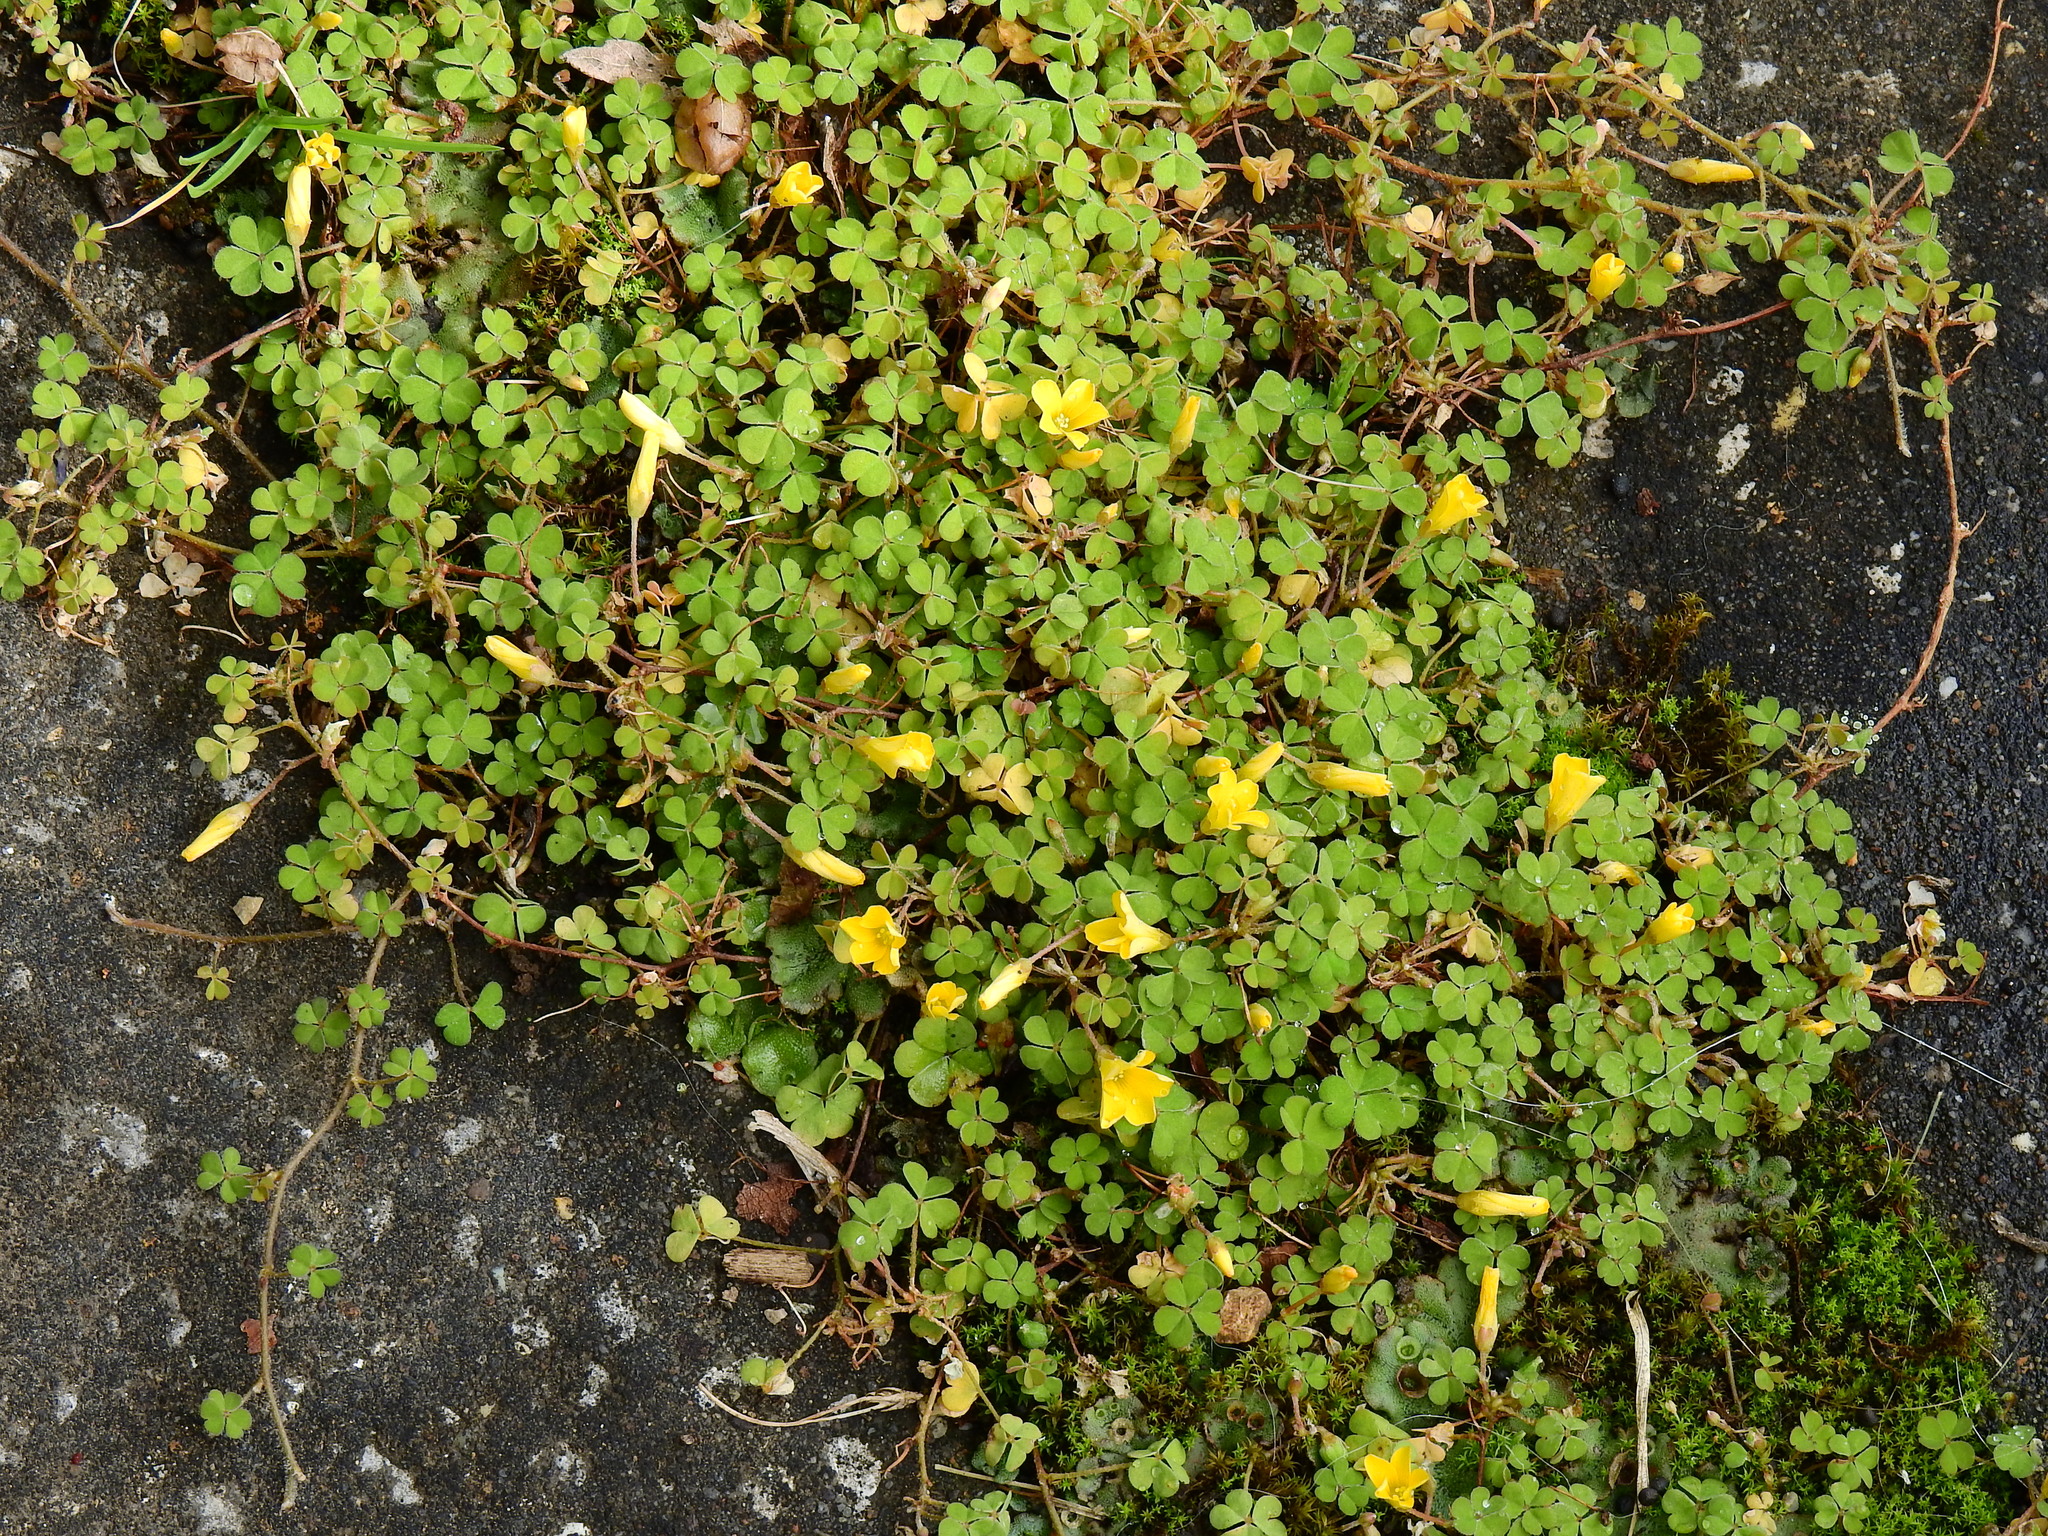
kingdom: Plantae
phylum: Tracheophyta
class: Magnoliopsida
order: Oxalidales
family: Oxalidaceae
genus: Oxalis
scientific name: Oxalis exilis
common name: Least yellow-sorrel
